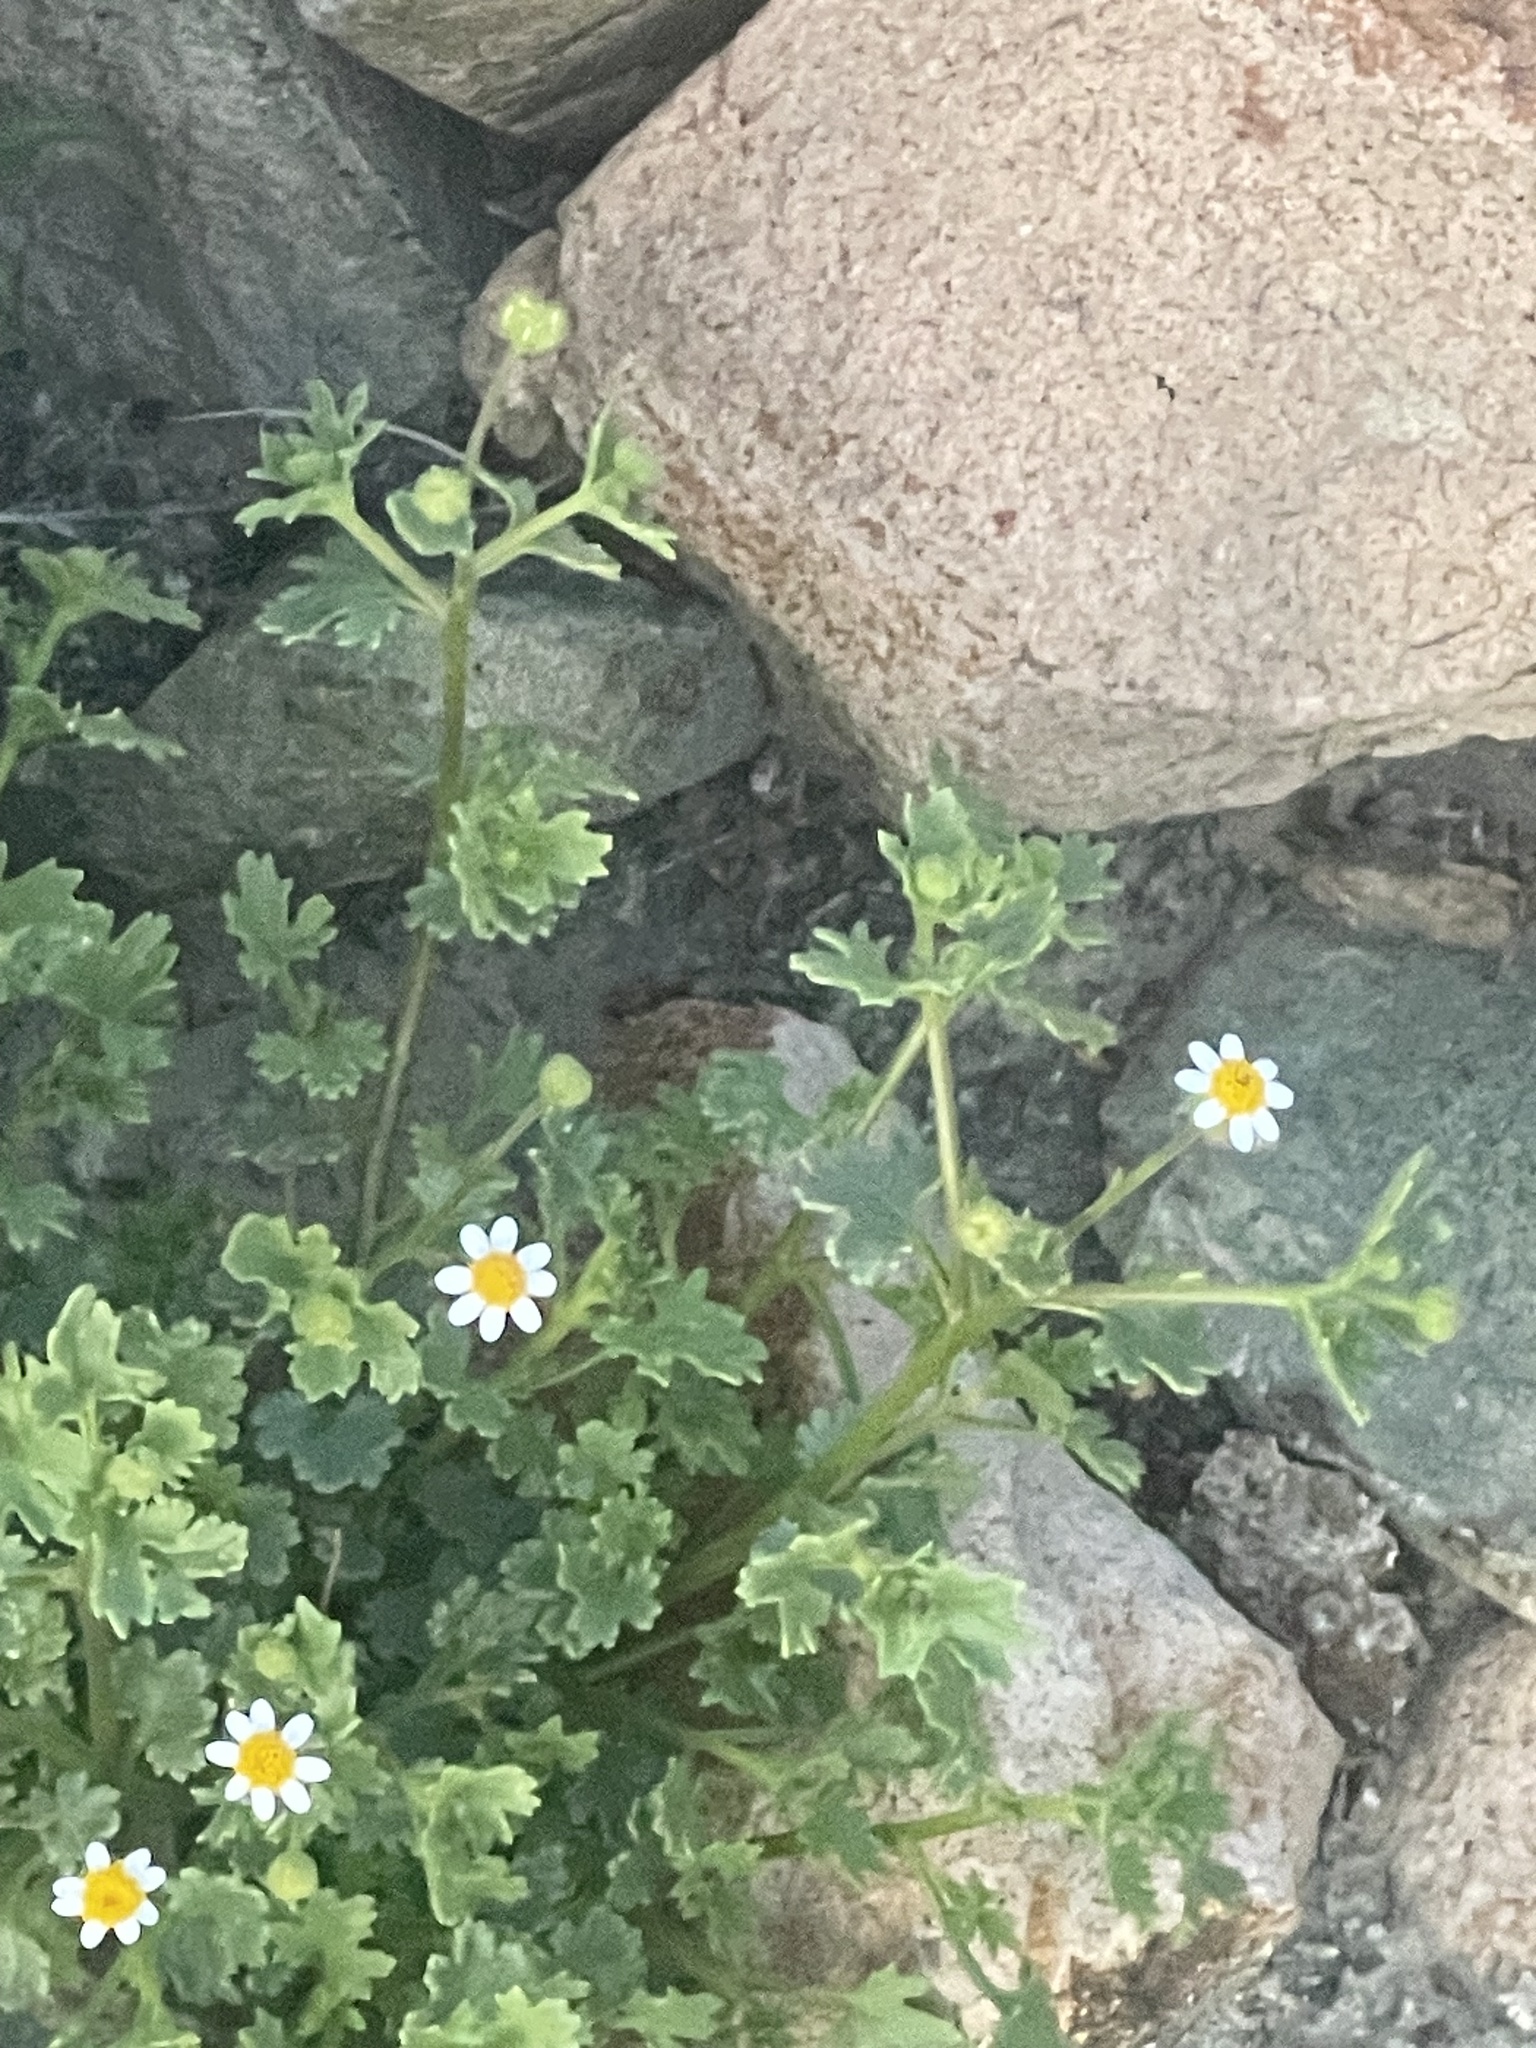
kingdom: Plantae
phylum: Tracheophyta
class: Magnoliopsida
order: Asterales
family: Asteraceae
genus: Laphamia
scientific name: Laphamia emoryi
